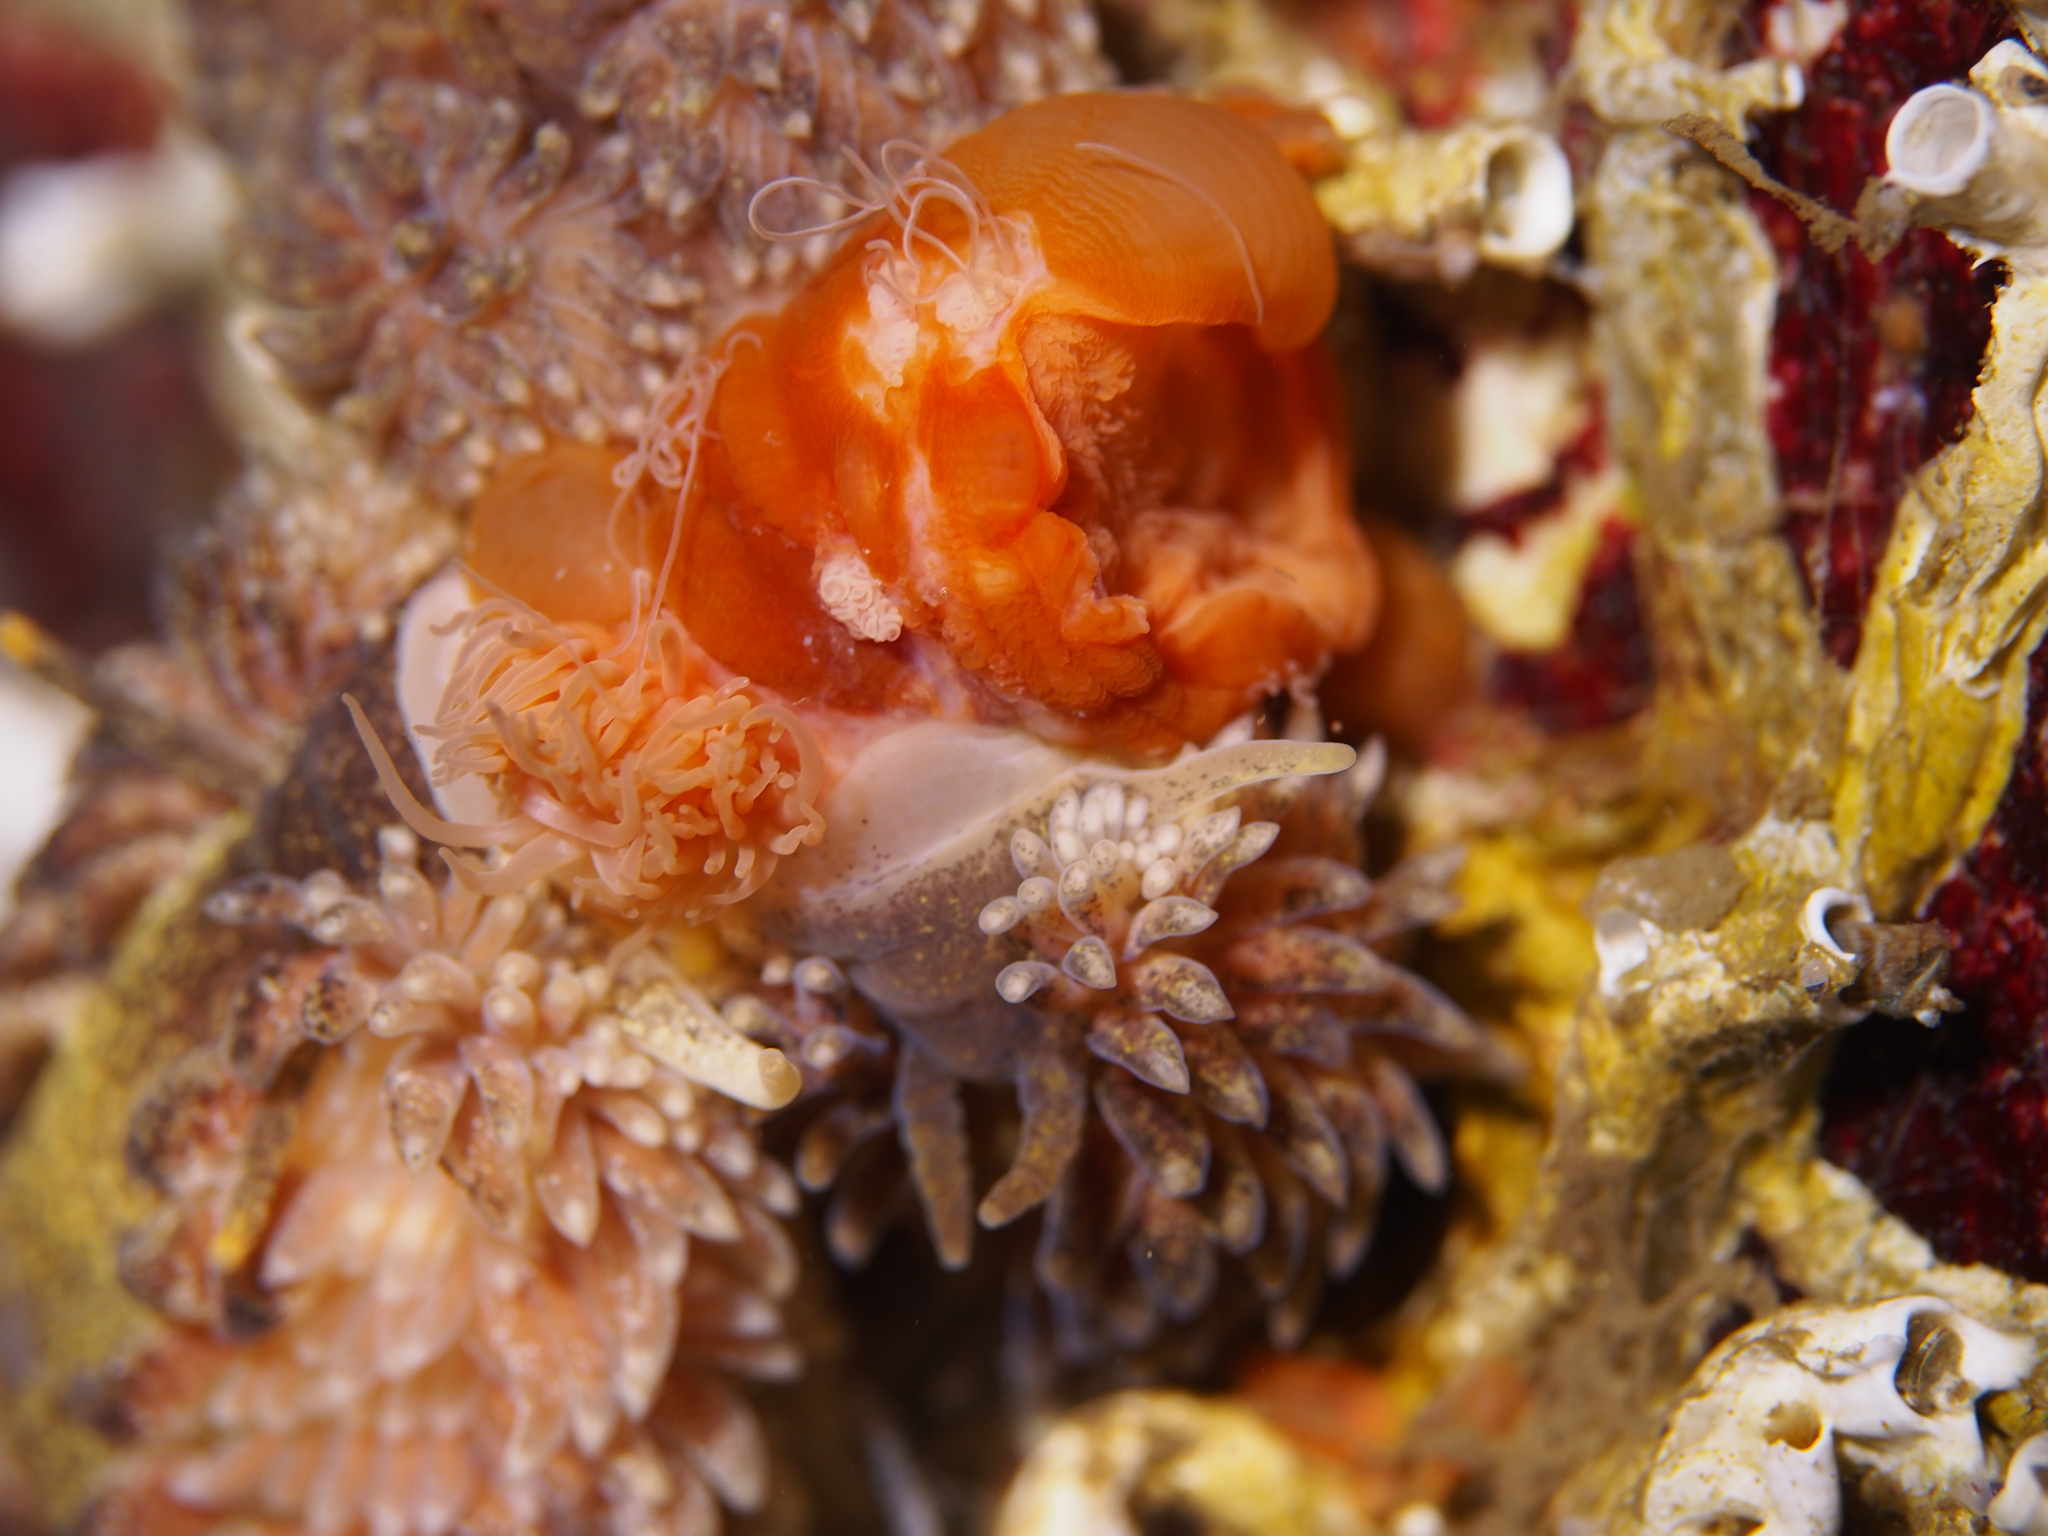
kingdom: Animalia
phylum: Mollusca
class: Gastropoda
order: Nudibranchia
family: Aeolidiidae
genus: Aeolidia
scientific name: Aeolidia papillosa
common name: Common grey sea slug
